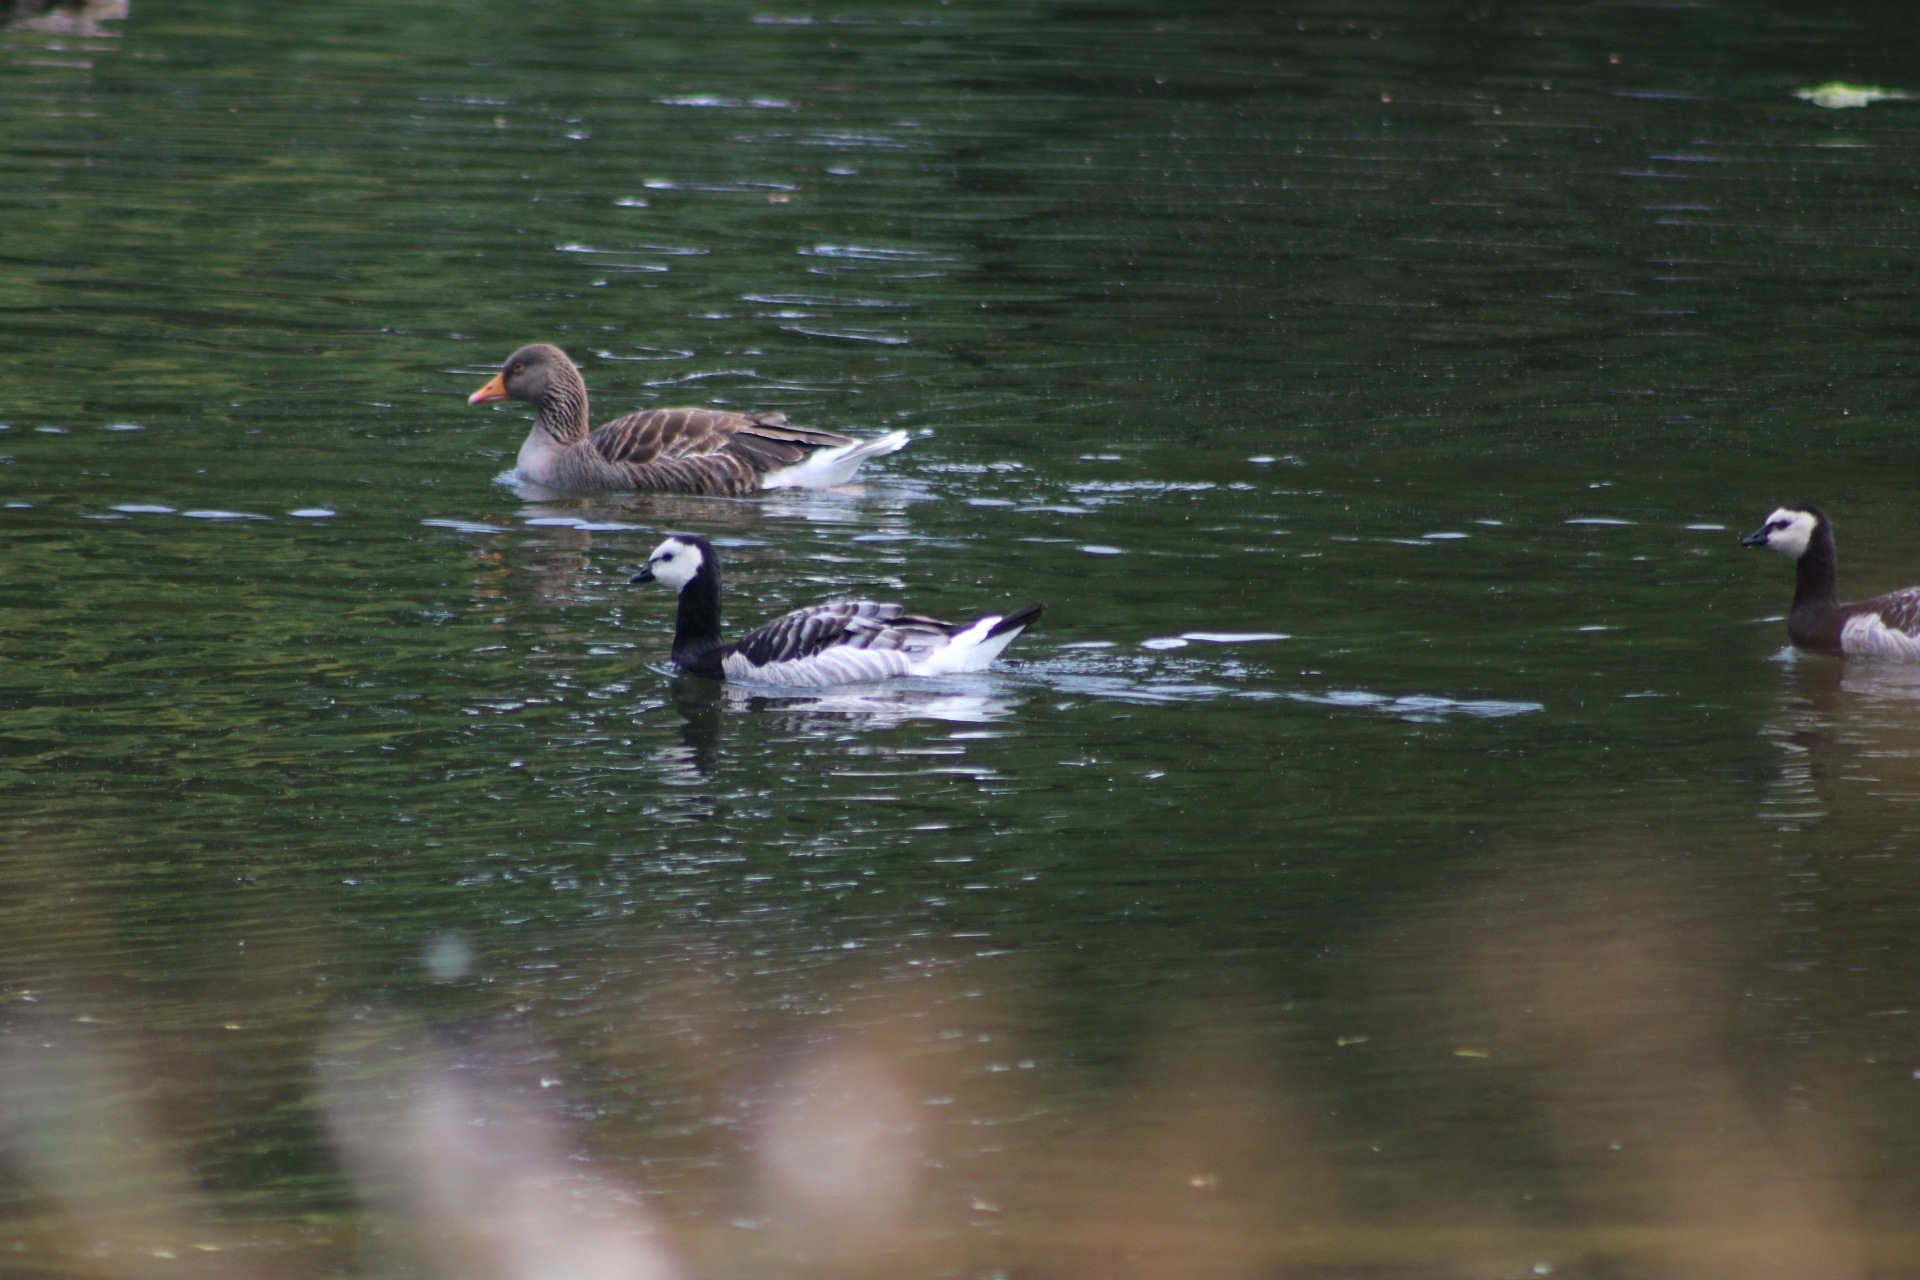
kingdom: Animalia
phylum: Chordata
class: Aves
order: Anseriformes
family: Anatidae
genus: Branta
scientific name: Branta leucopsis
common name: Barnacle goose
